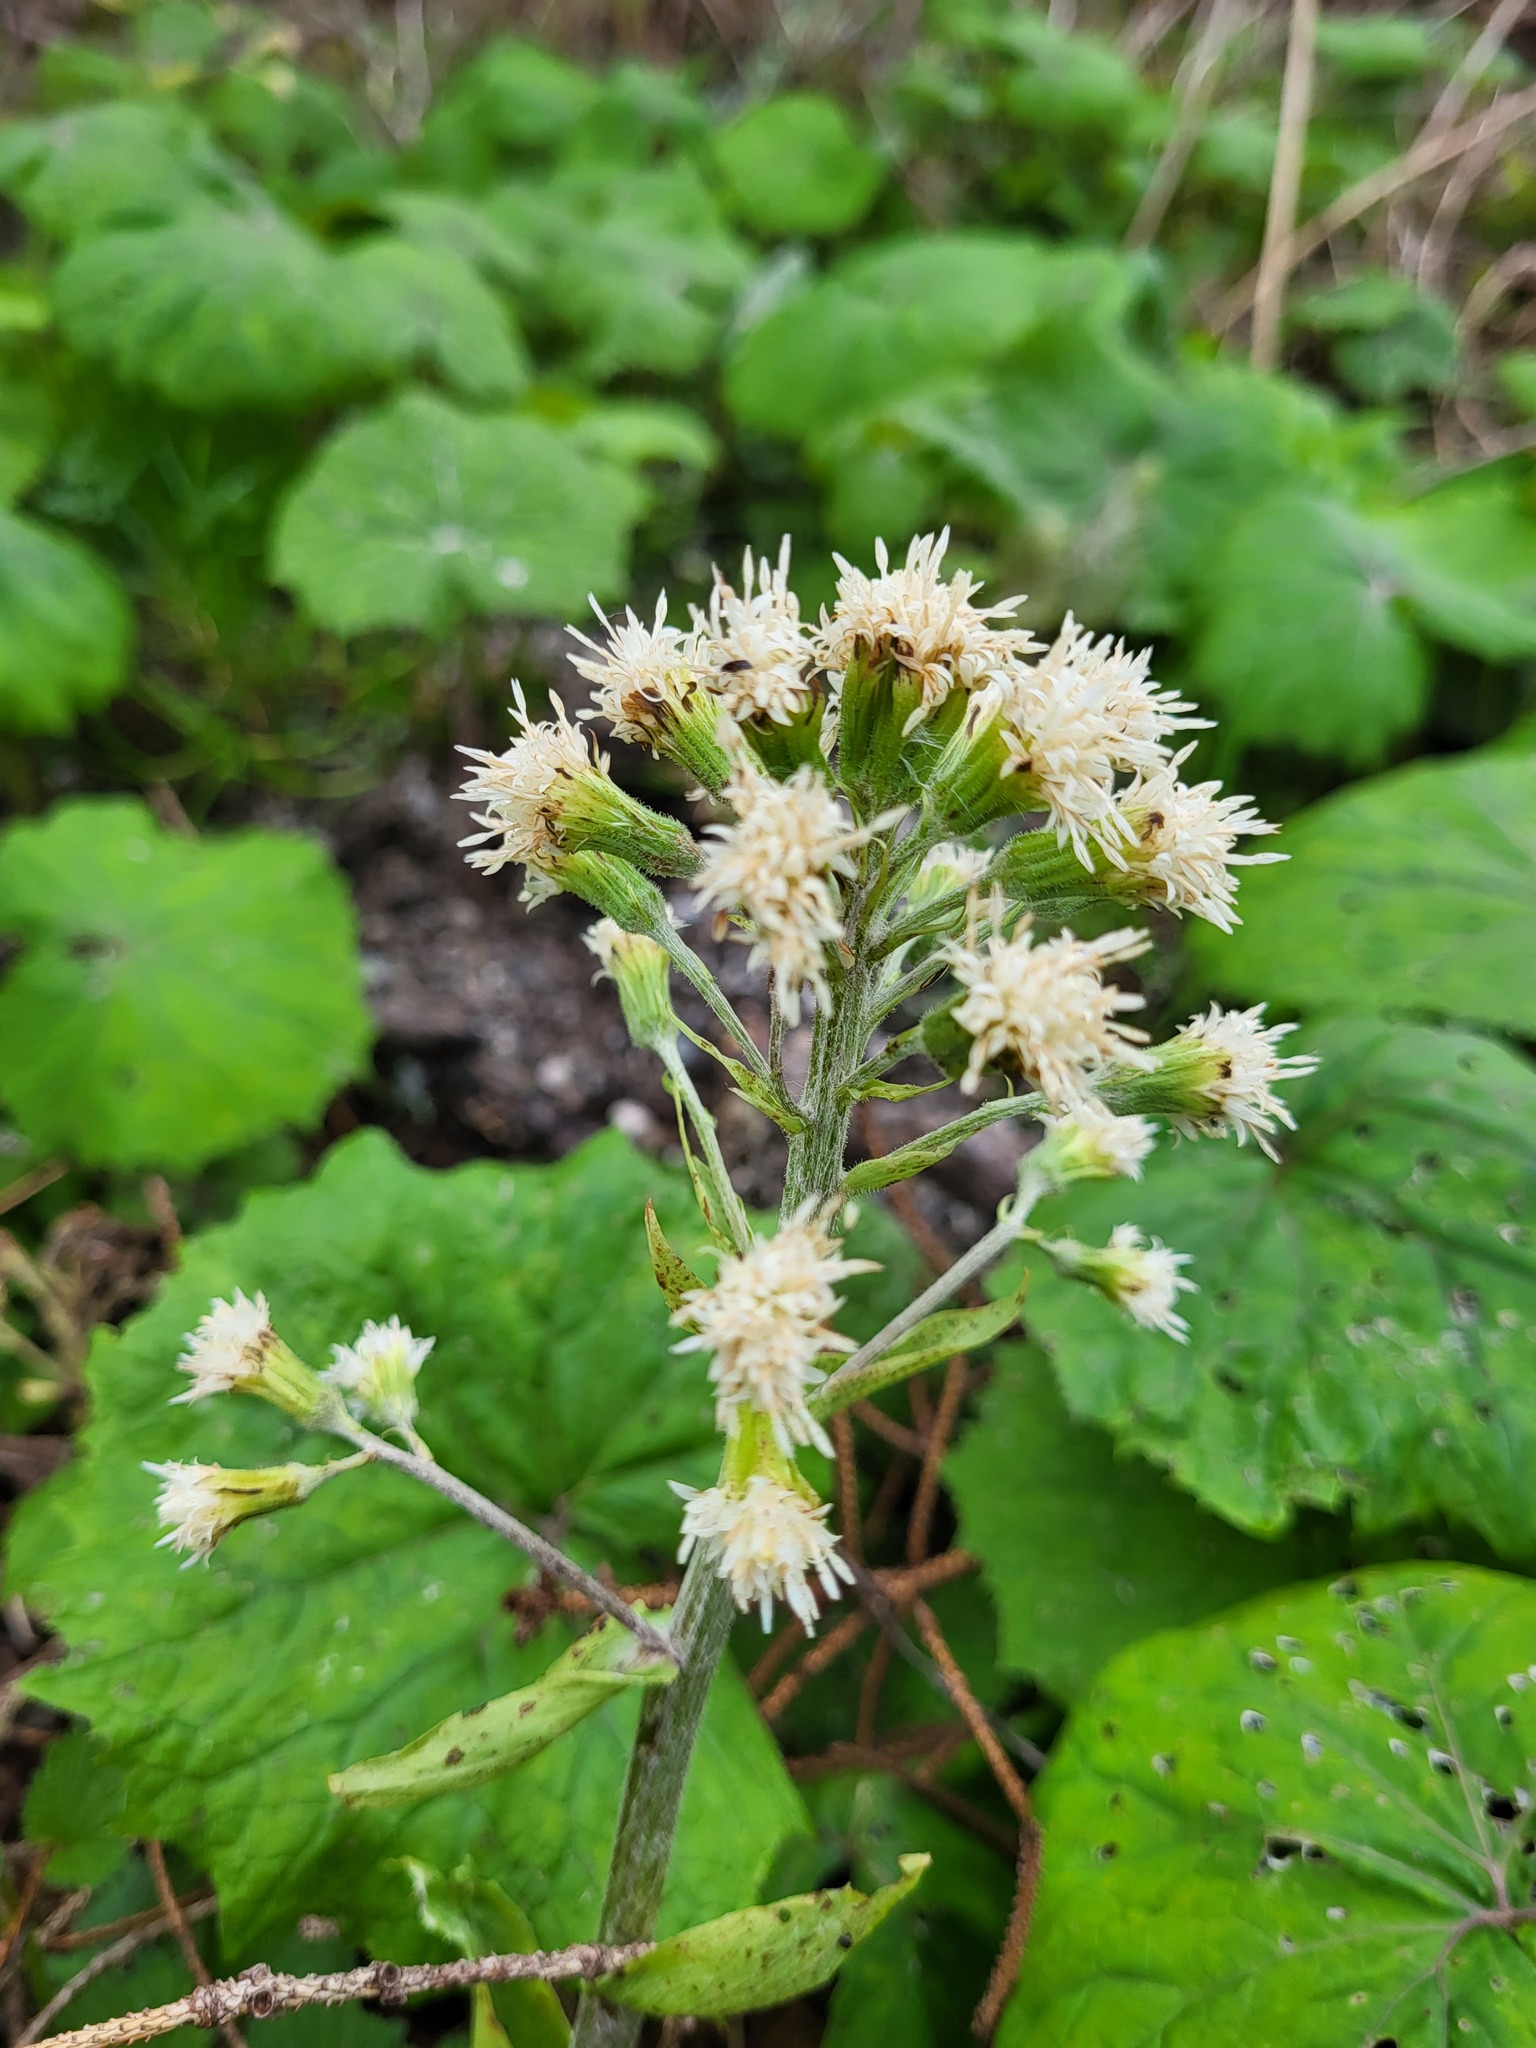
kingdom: Plantae
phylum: Tracheophyta
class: Magnoliopsida
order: Asterales
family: Asteraceae
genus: Petasites
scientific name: Petasites albus
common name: White butterbur
